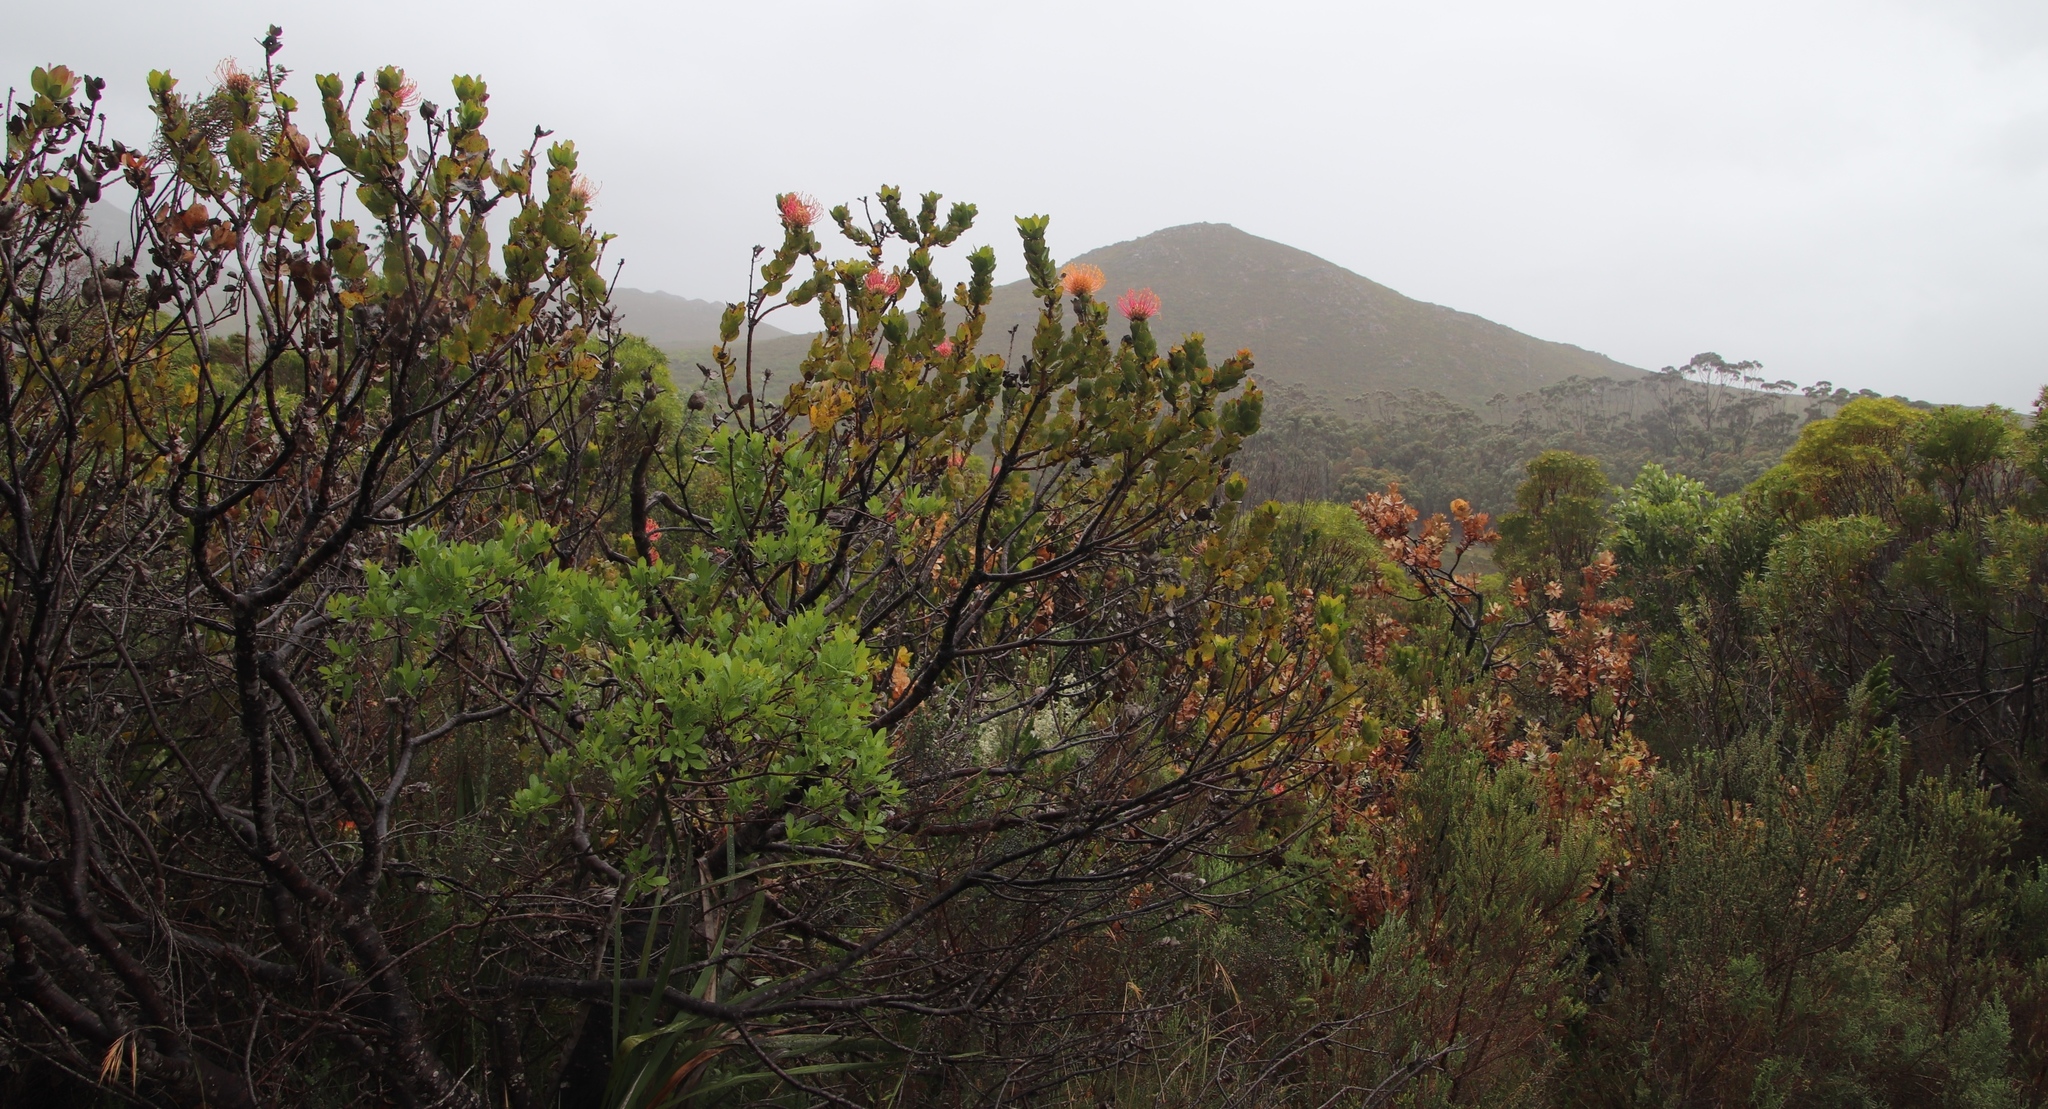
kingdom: Plantae
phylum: Tracheophyta
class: Magnoliopsida
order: Proteales
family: Proteaceae
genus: Leucospermum
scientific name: Leucospermum patersonii
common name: False tree pincushion
